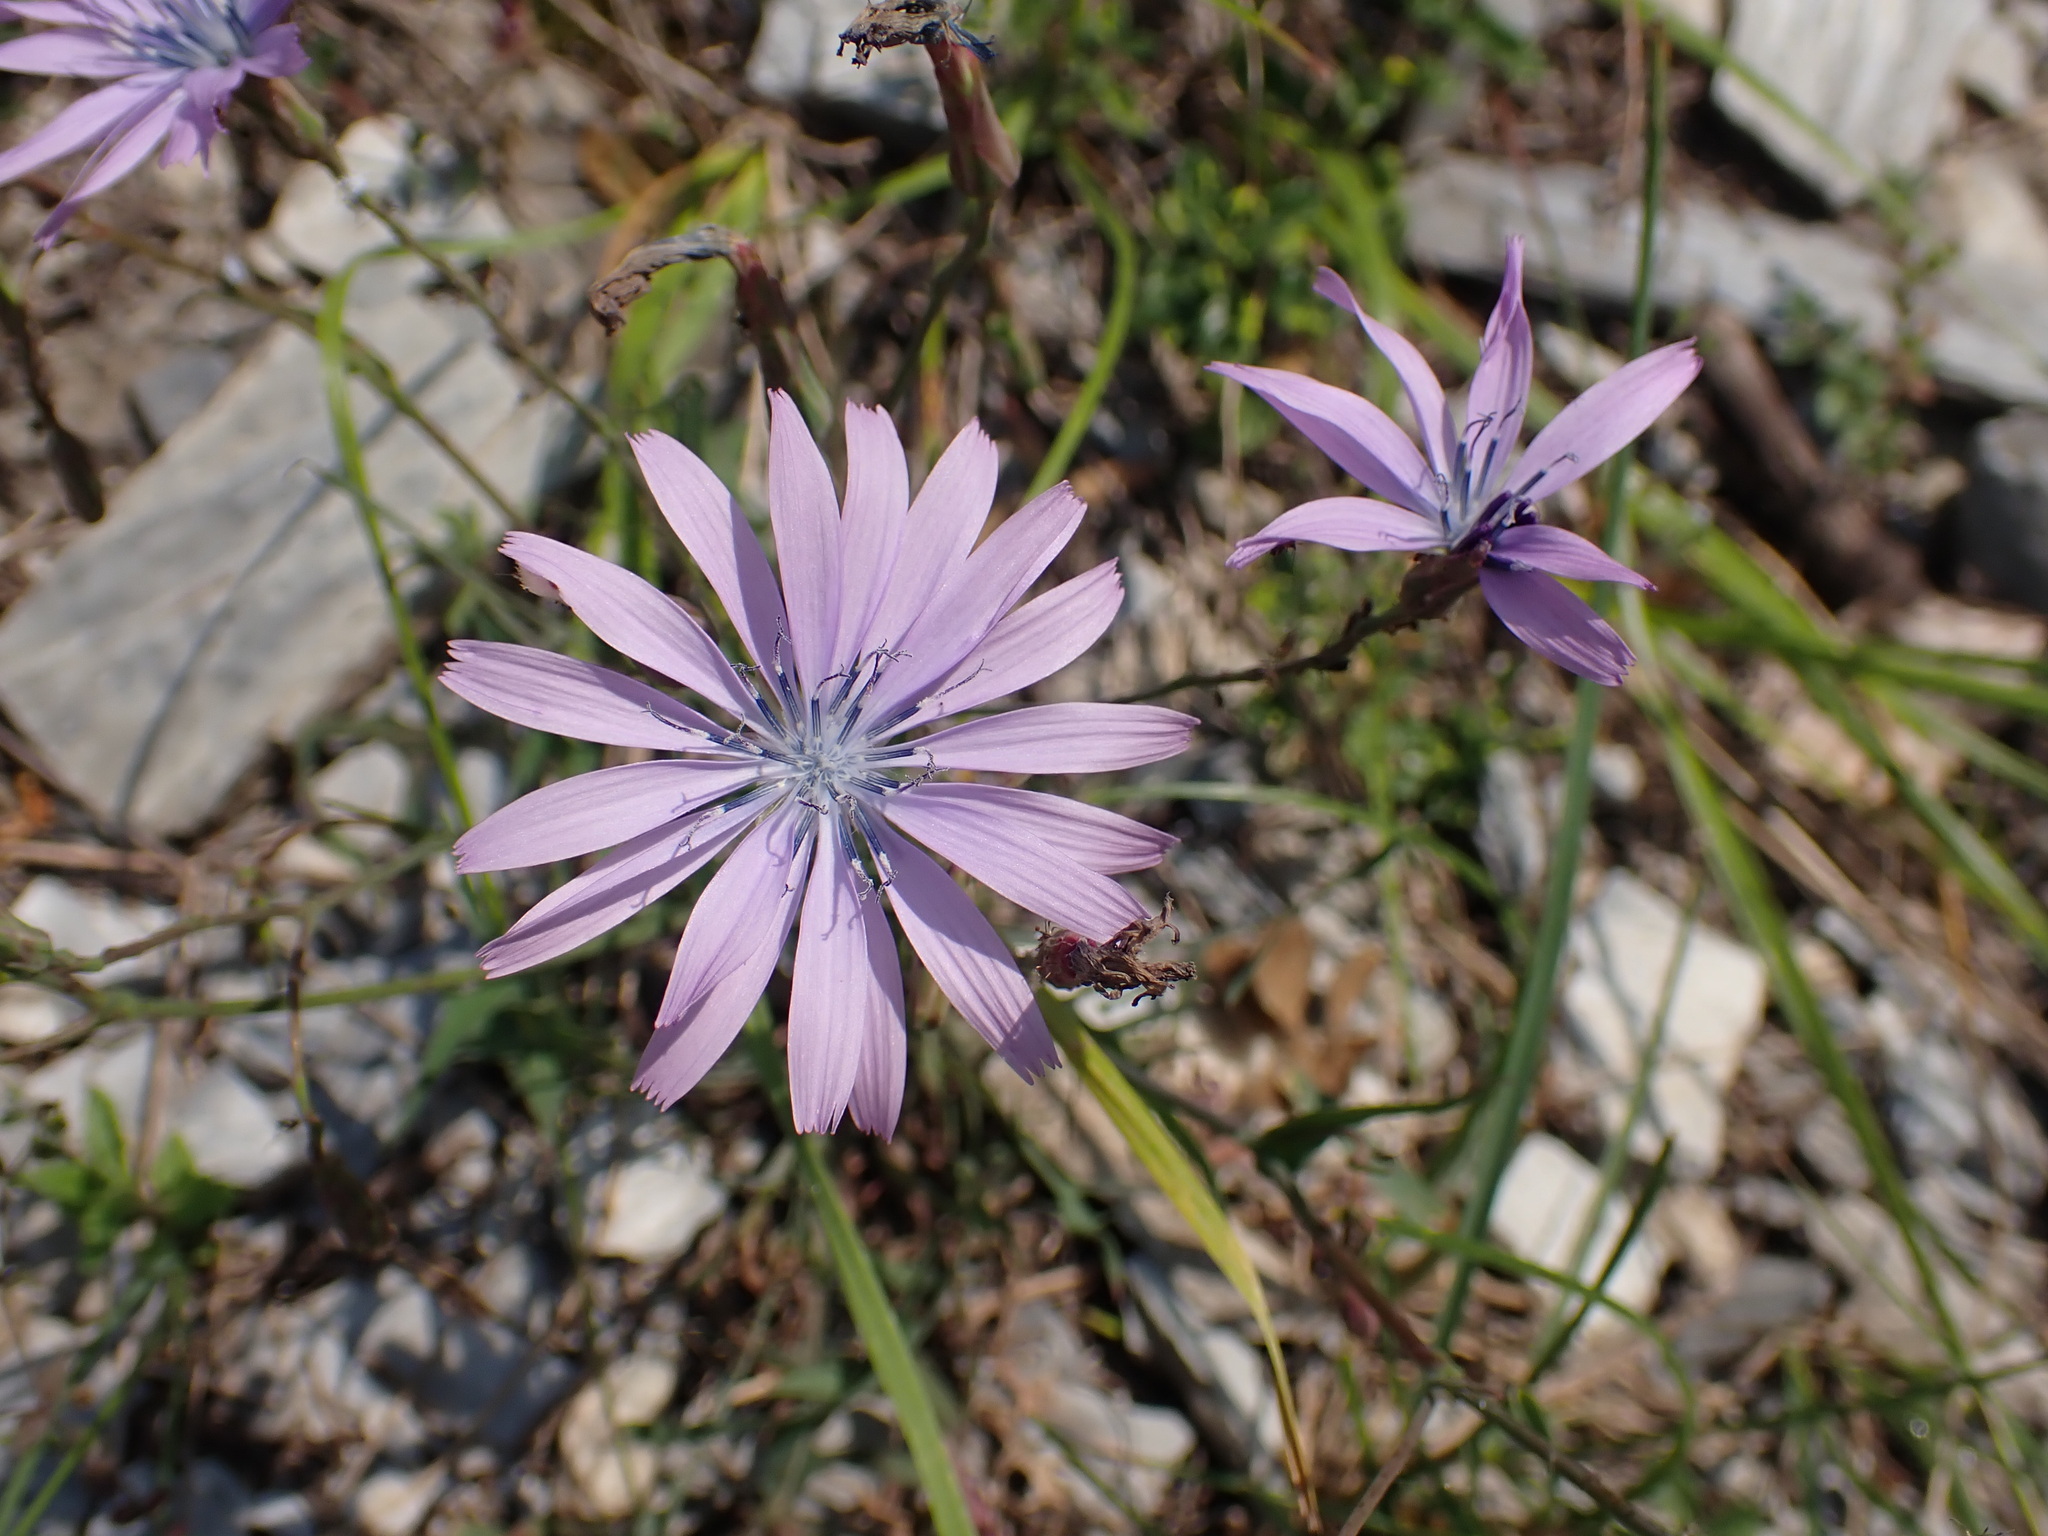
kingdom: Plantae
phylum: Tracheophyta
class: Magnoliopsida
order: Asterales
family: Asteraceae
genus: Lactuca
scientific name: Lactuca perennis
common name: Mountain lettuce
